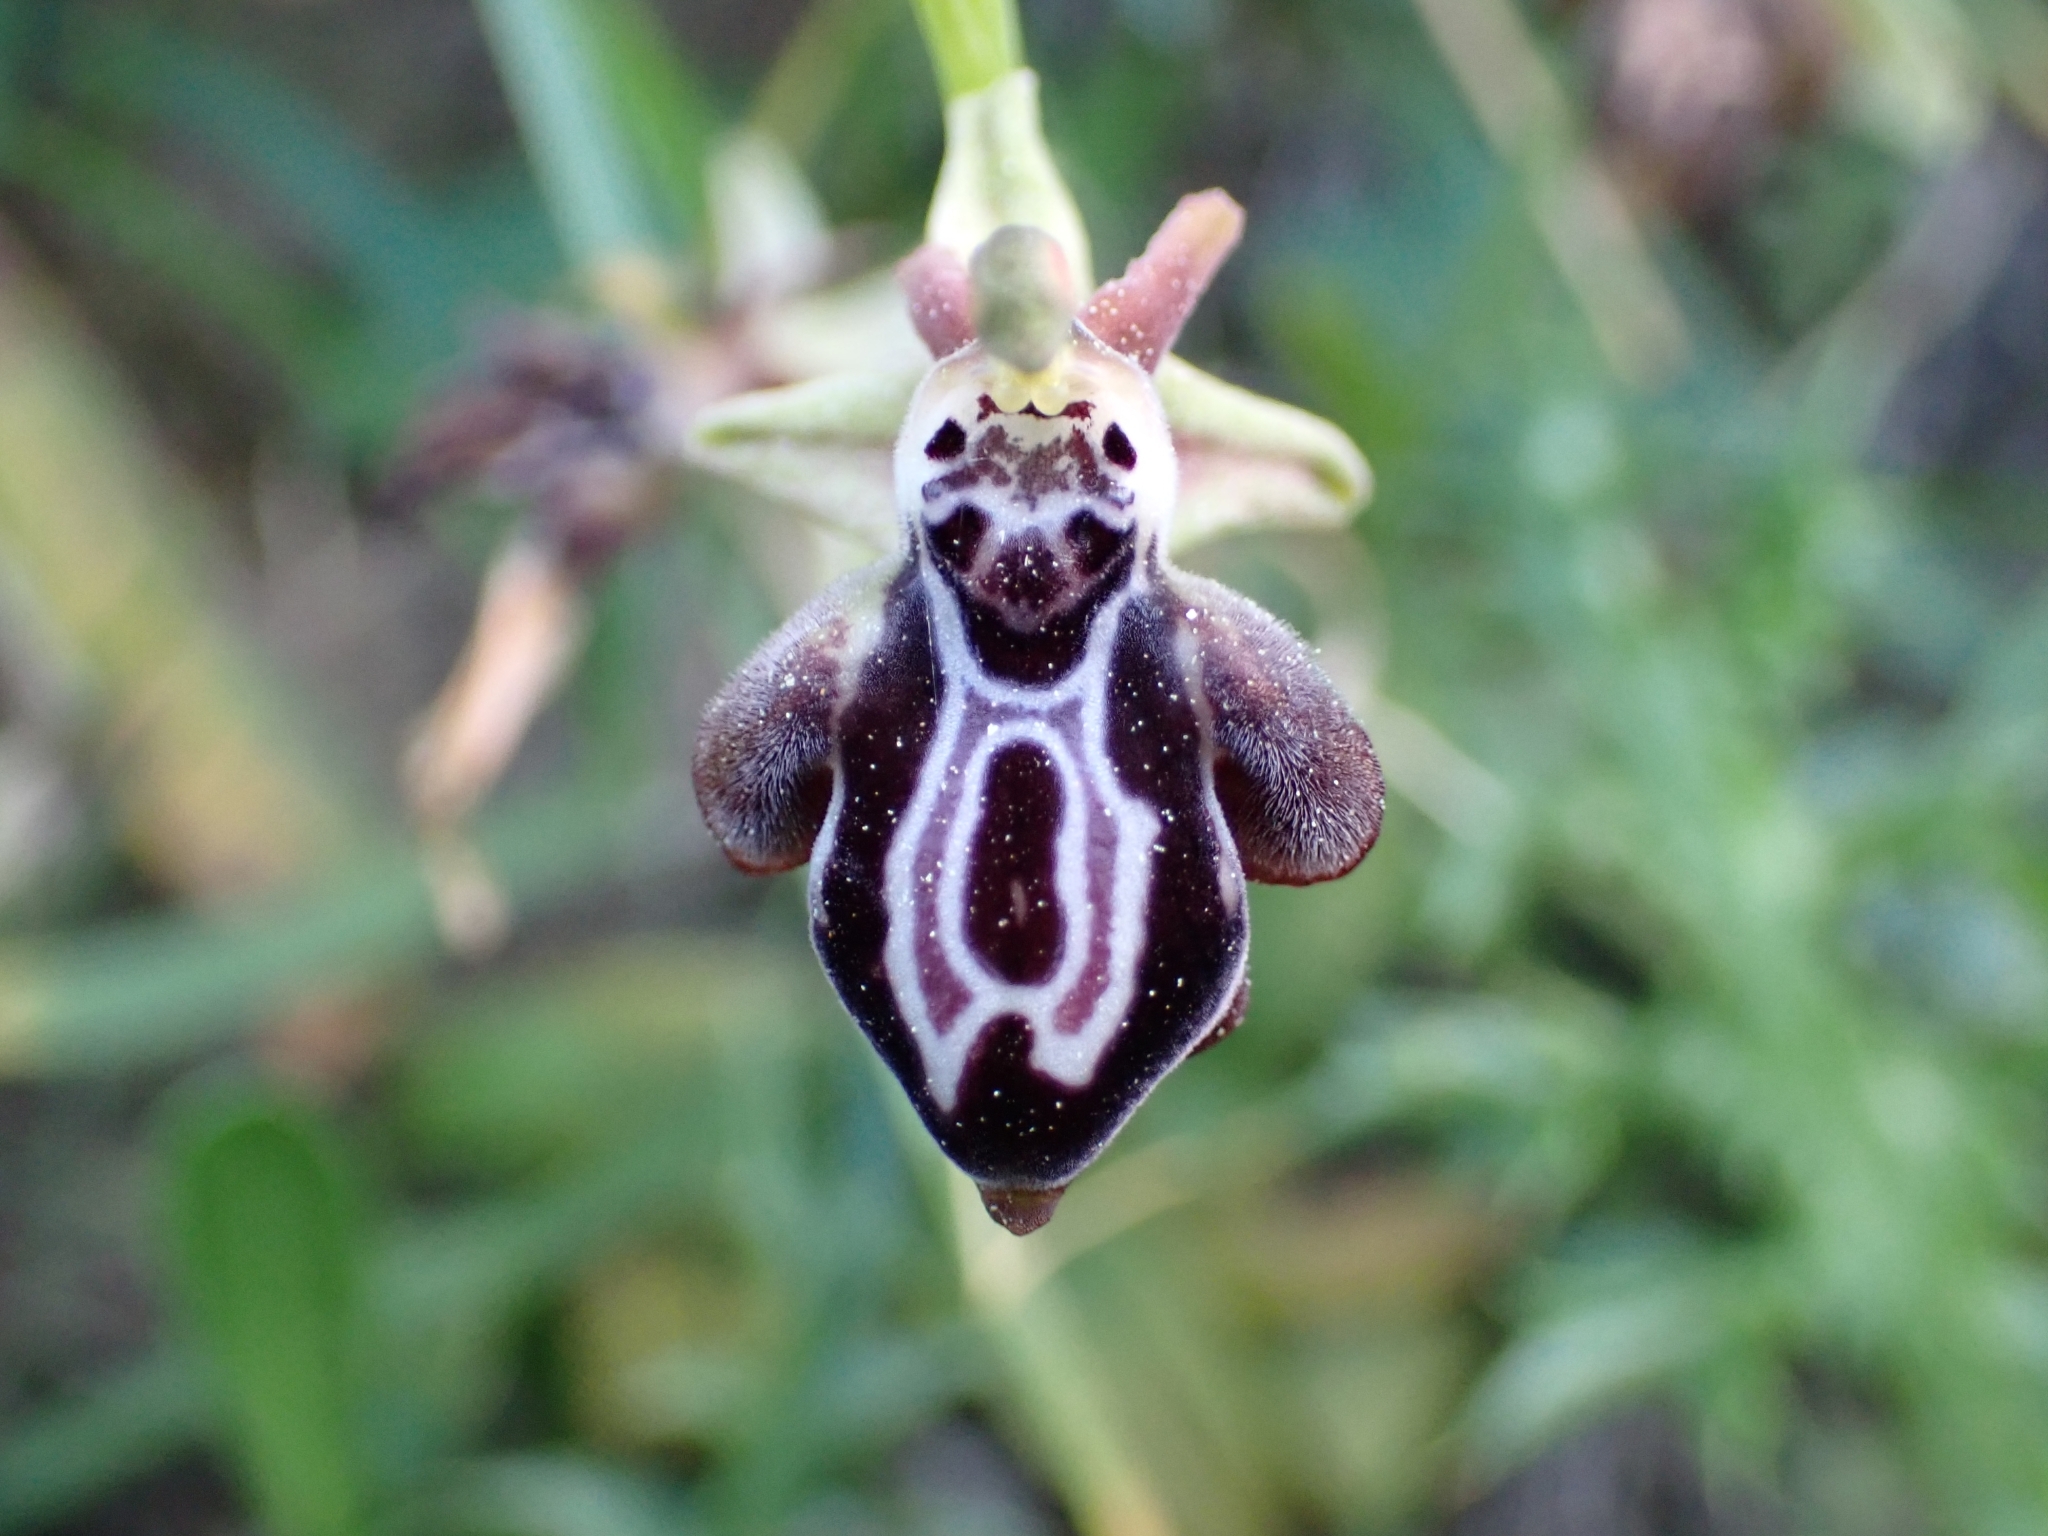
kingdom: Plantae
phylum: Tracheophyta
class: Liliopsida
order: Asparagales
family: Orchidaceae
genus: Ophrys
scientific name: Ophrys cretica
